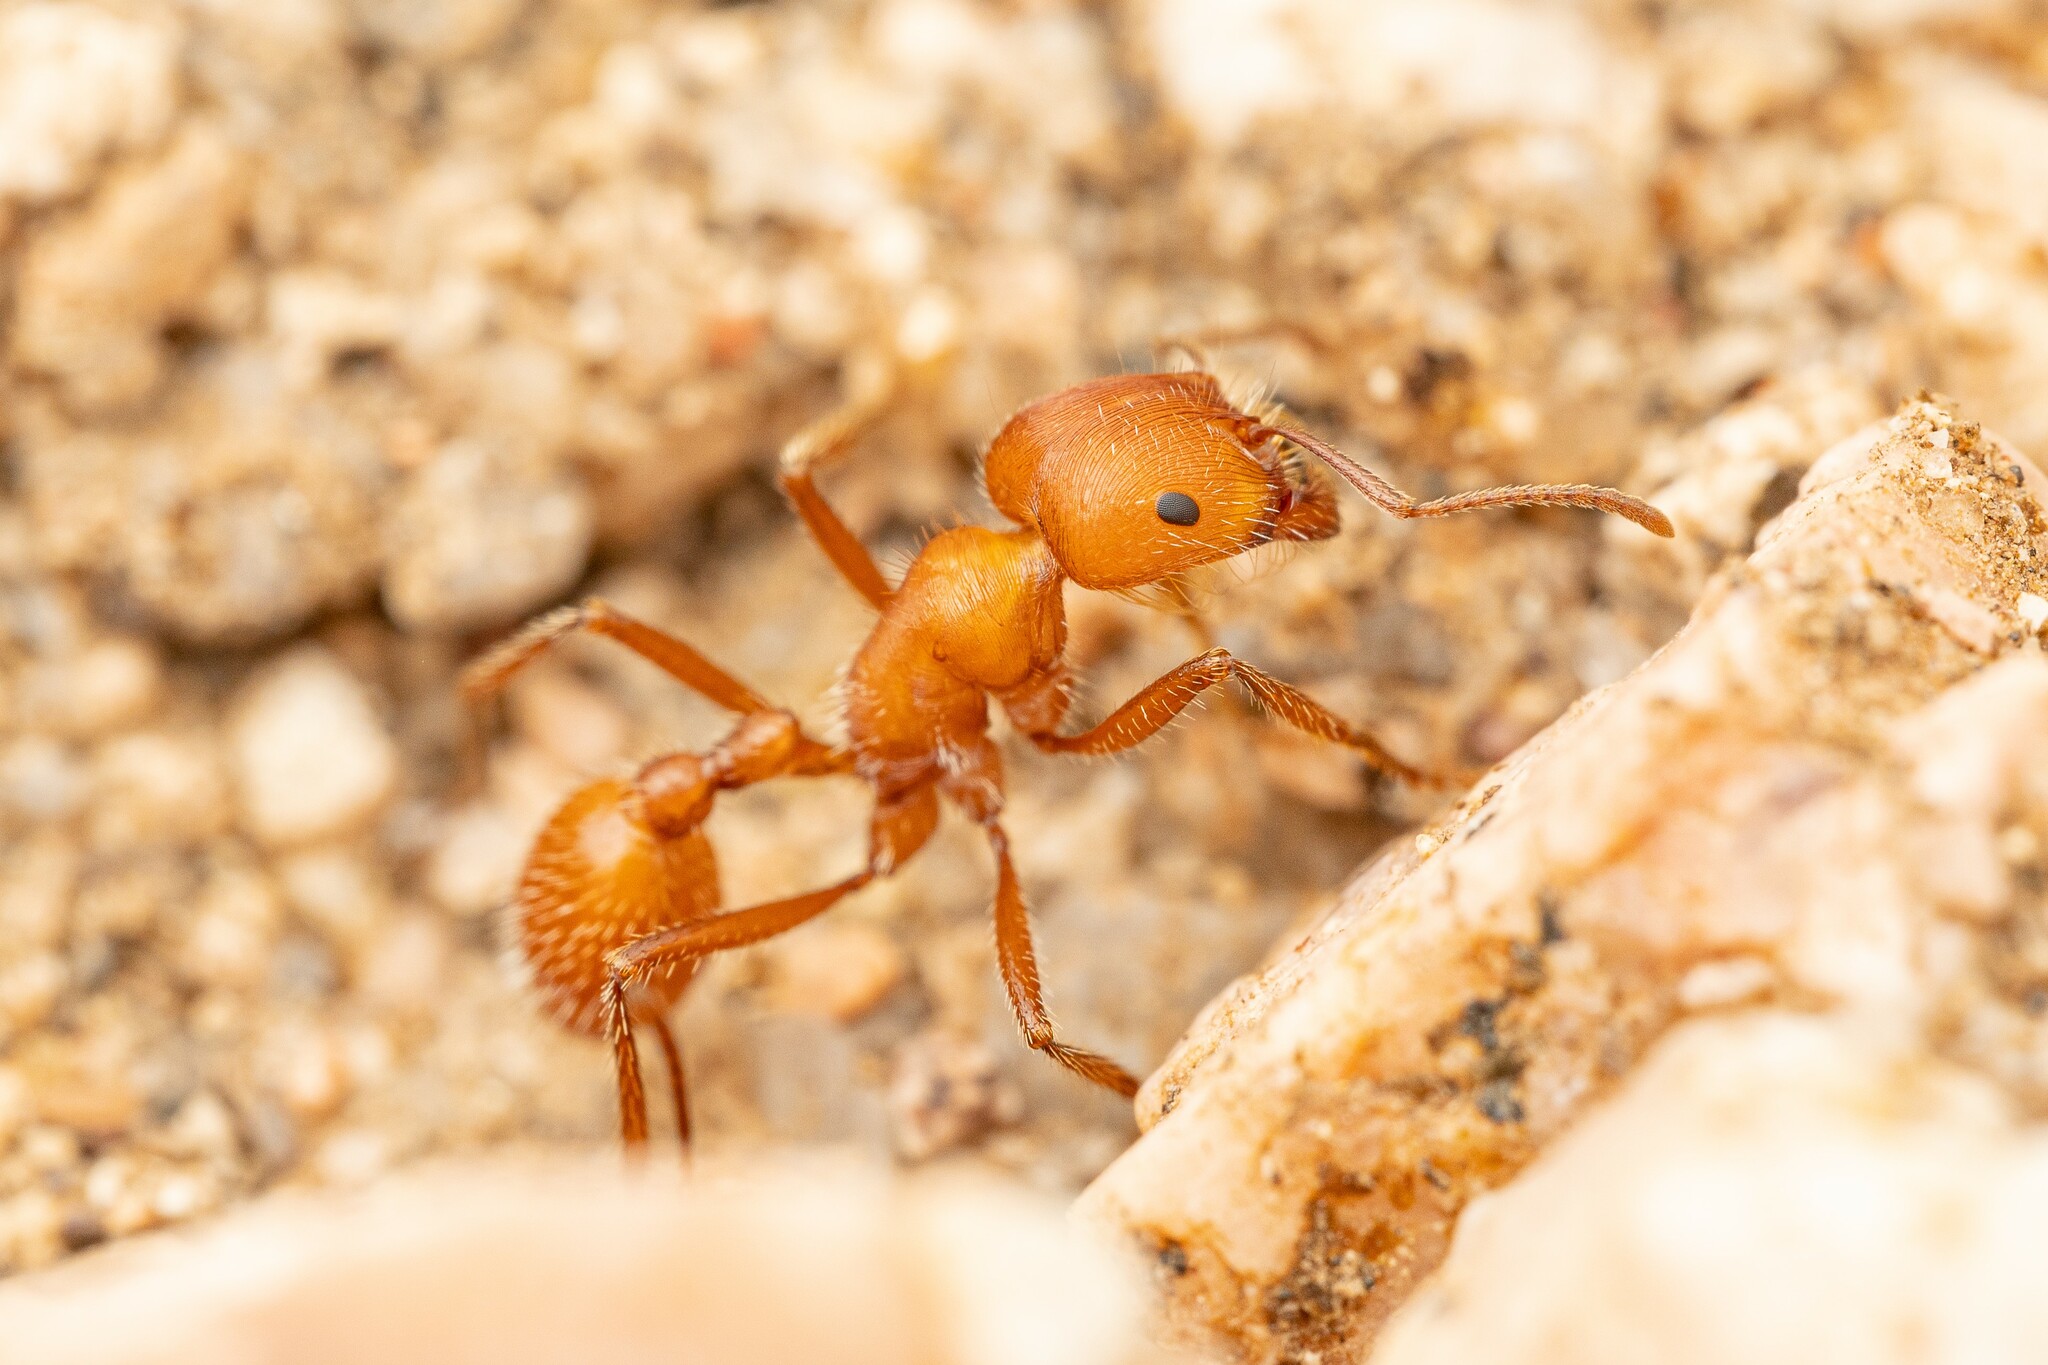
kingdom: Animalia
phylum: Arthropoda
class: Insecta
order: Hymenoptera
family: Formicidae
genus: Pogonomyrmex
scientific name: Pogonomyrmex maricopa
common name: Maricopa harvester ant
